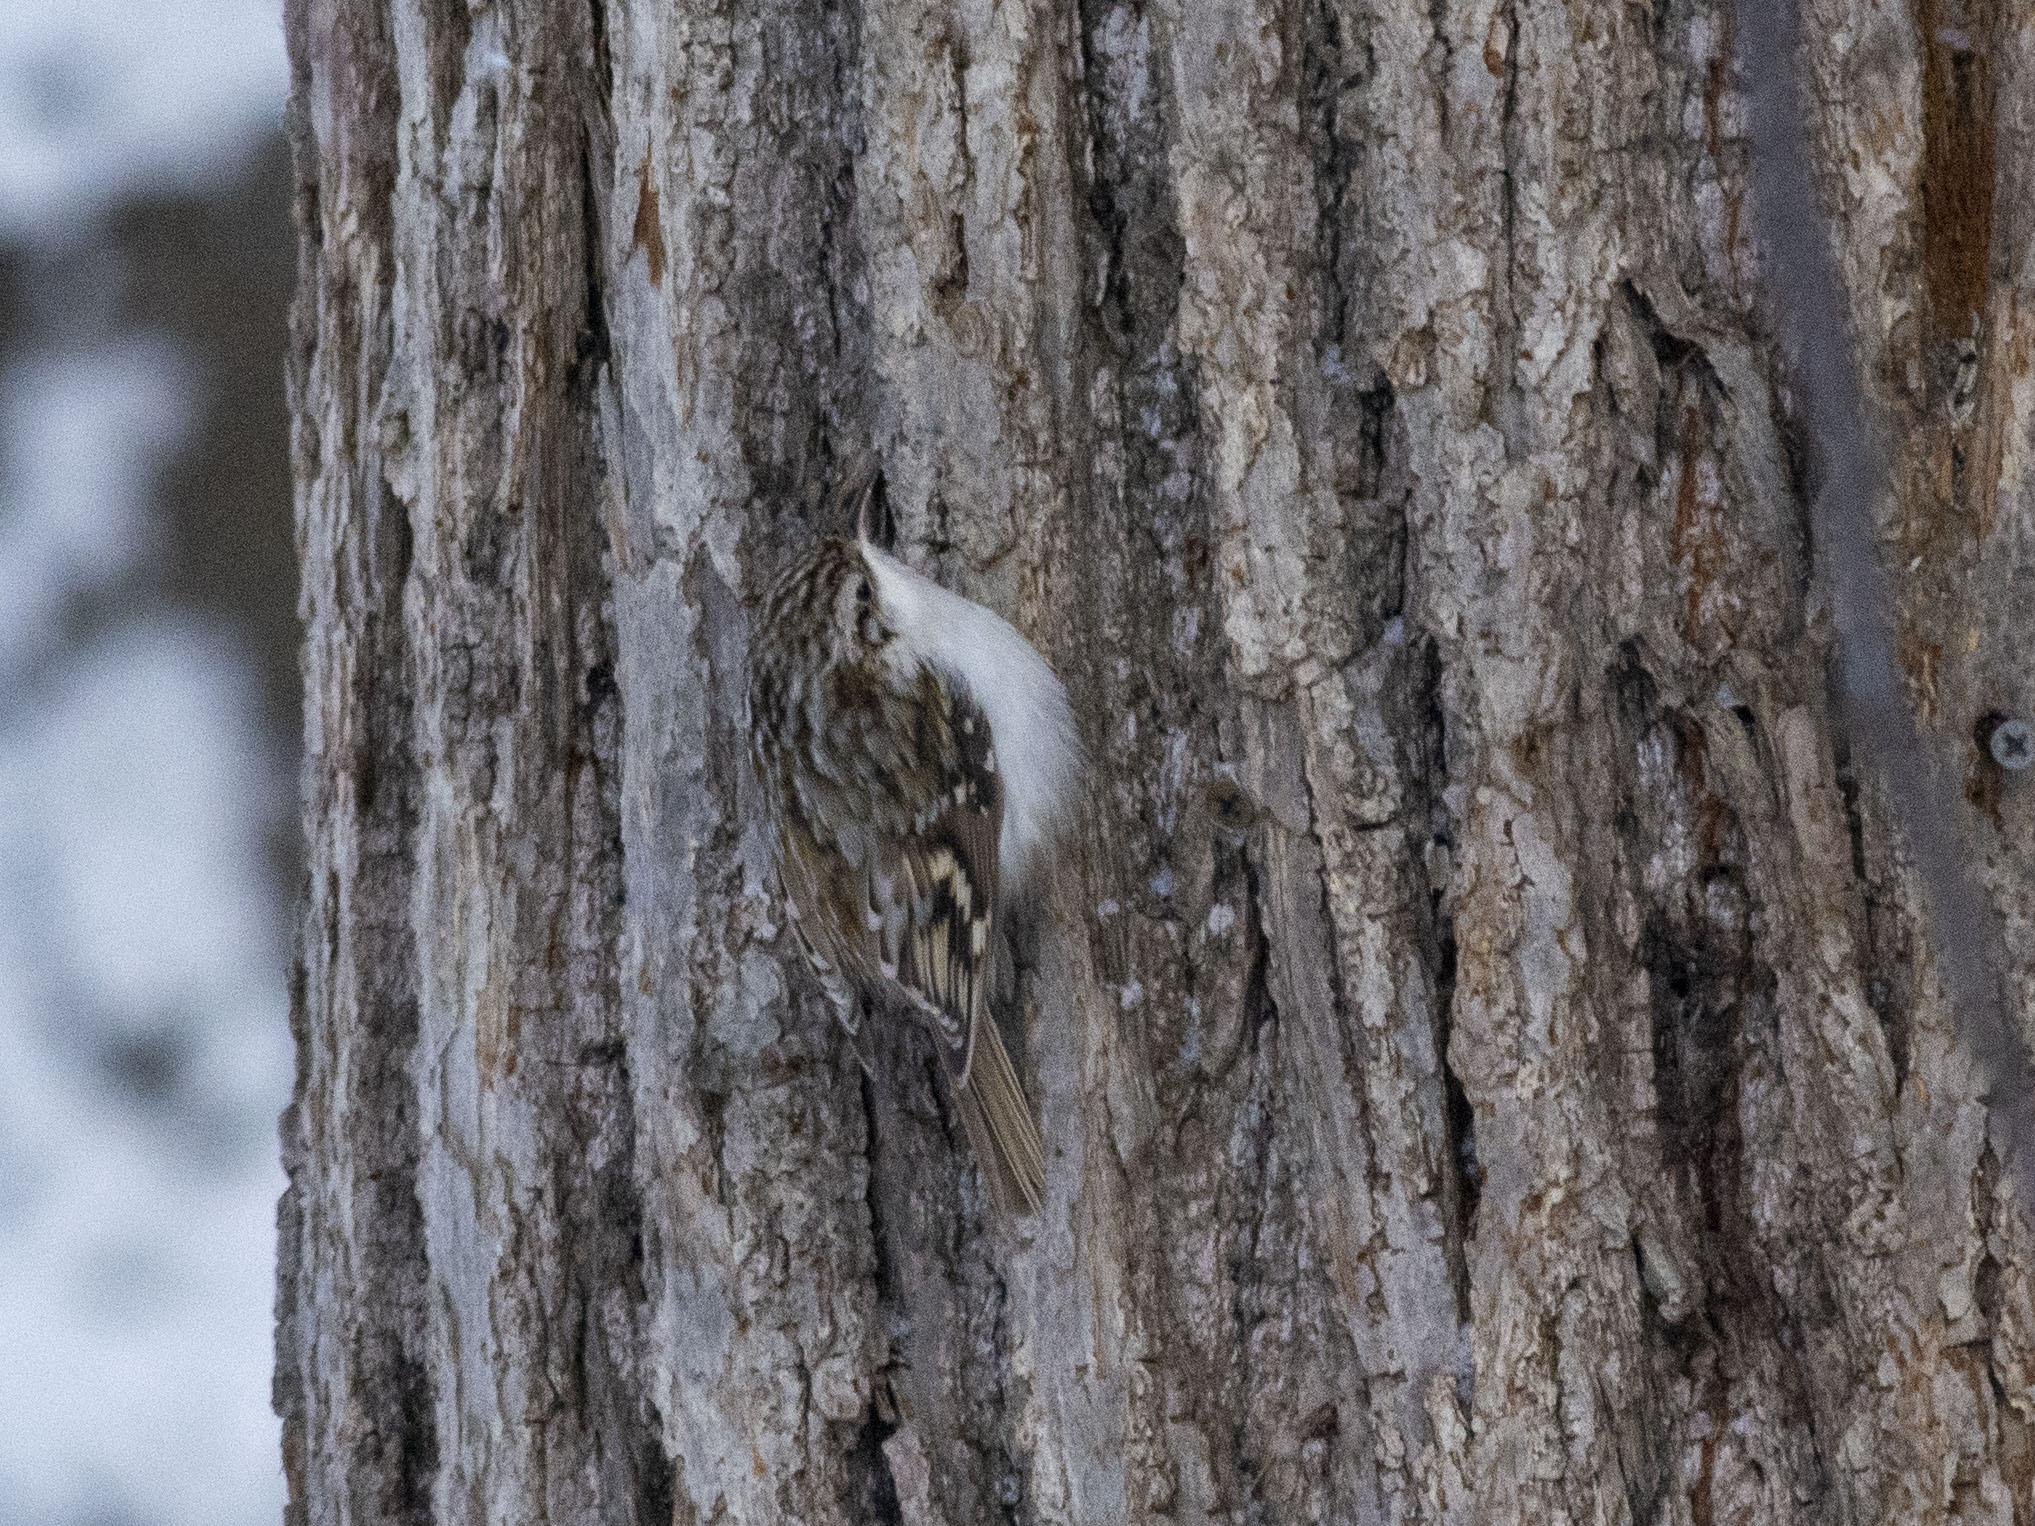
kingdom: Animalia
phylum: Chordata
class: Aves
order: Passeriformes
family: Certhiidae
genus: Certhia
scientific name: Certhia familiaris
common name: Eurasian treecreeper
